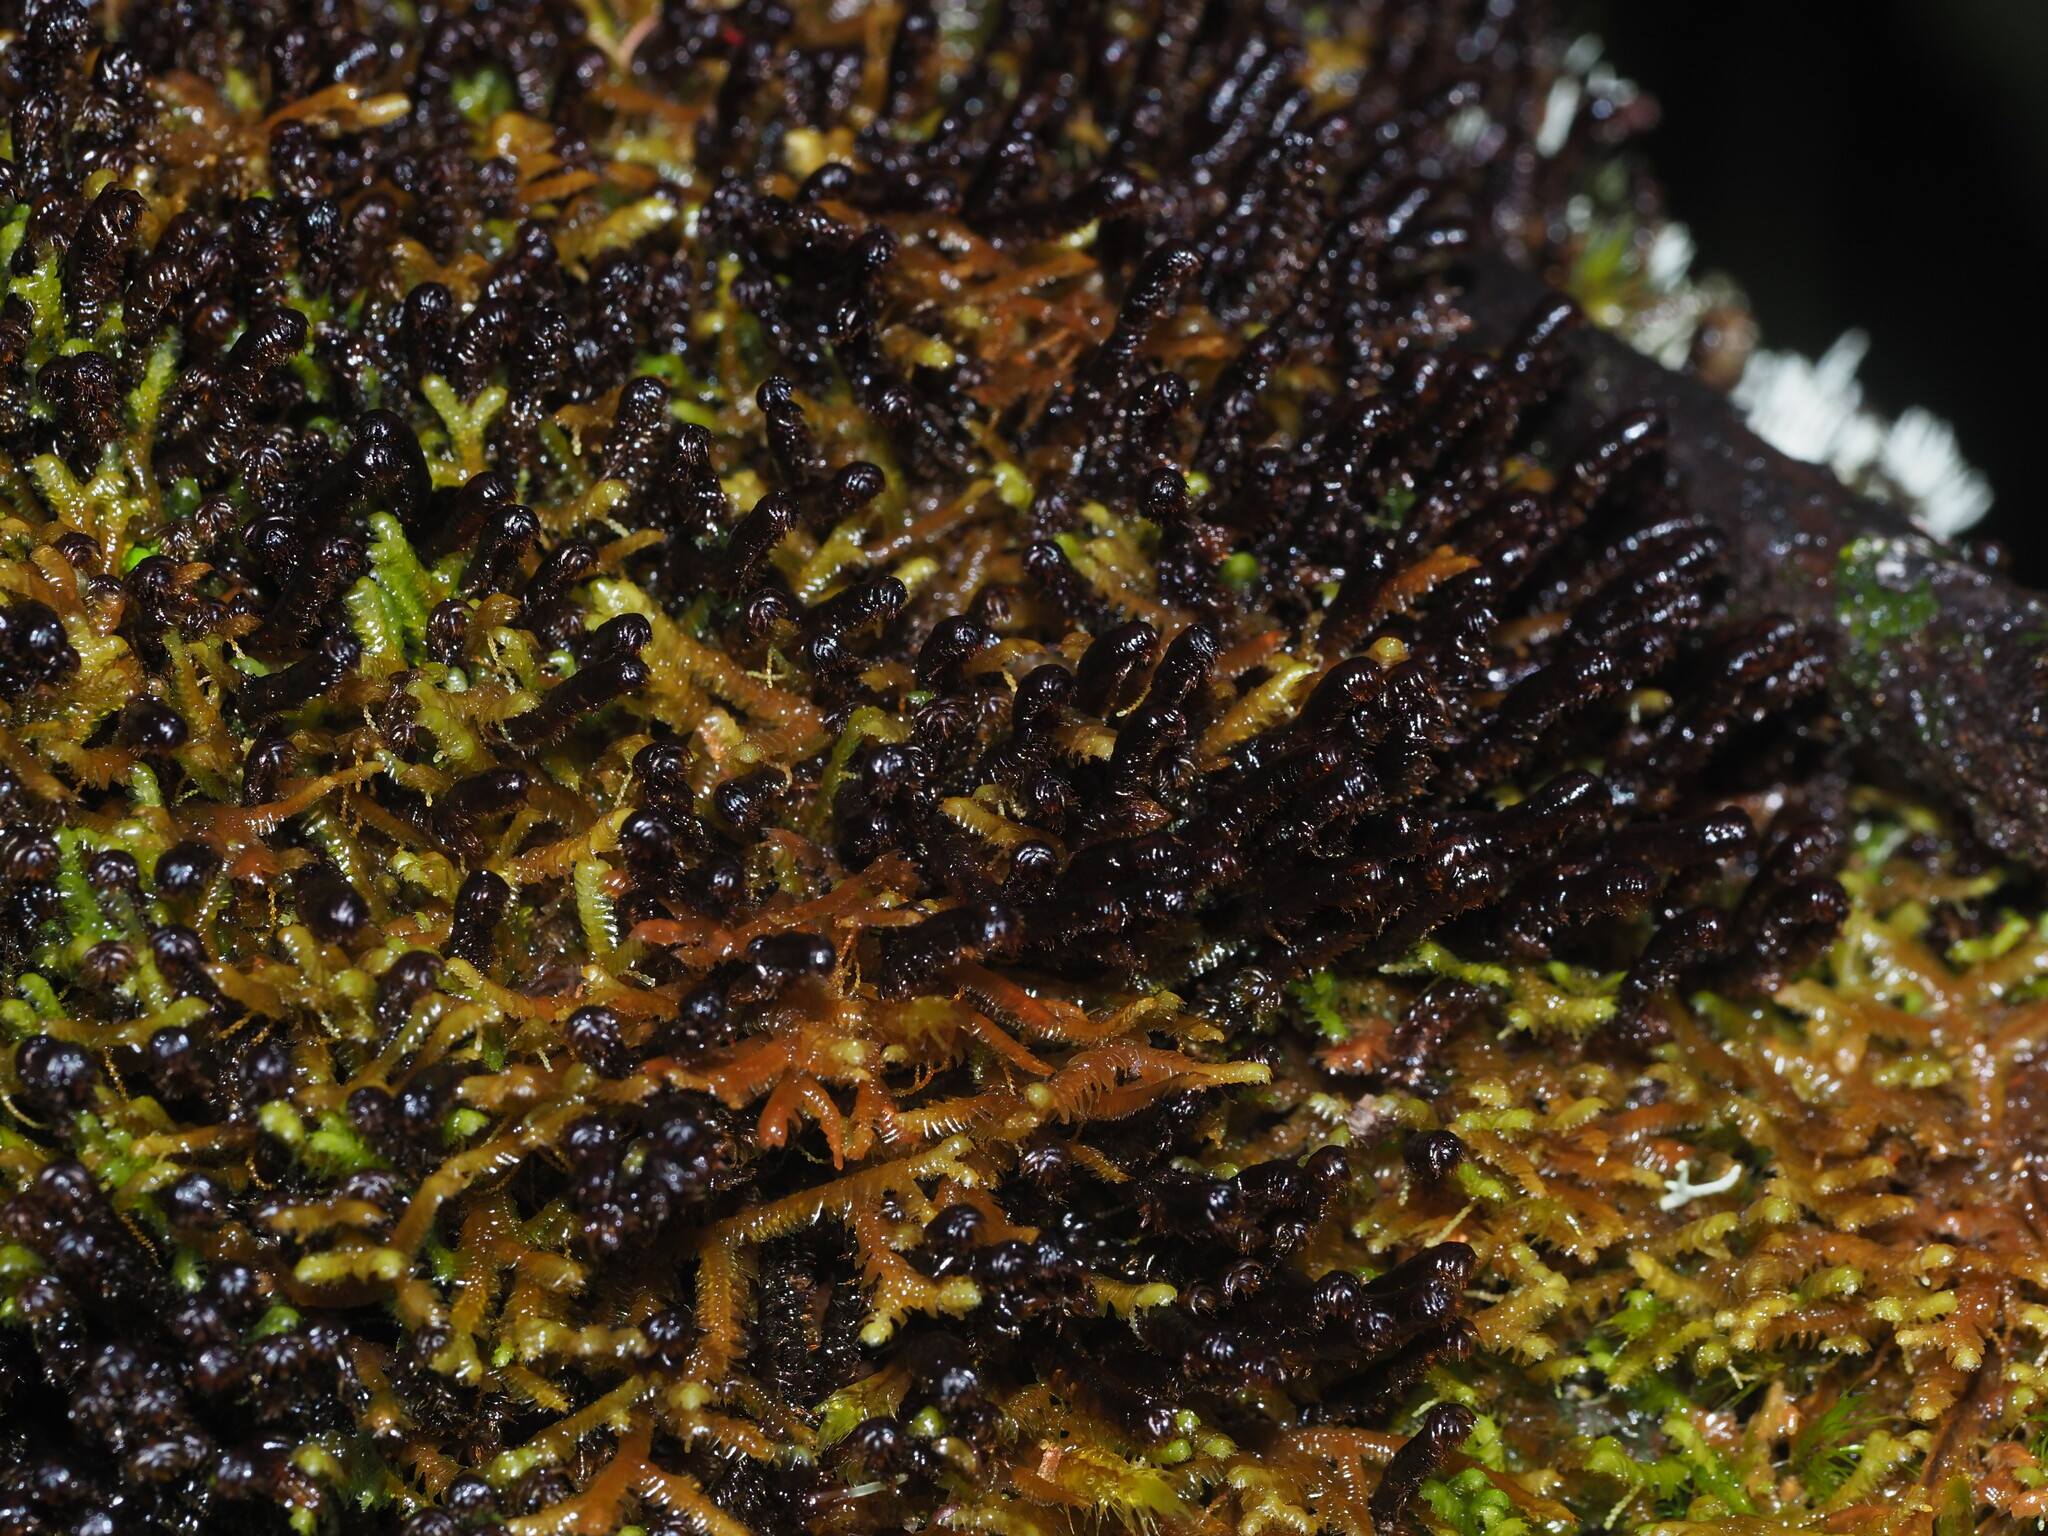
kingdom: Plantae
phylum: Marchantiophyta
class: Jungermanniopsida
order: Jungermanniales
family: Anastrophyllaceae
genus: Anastrophyllum
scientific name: Anastrophyllum fissum
